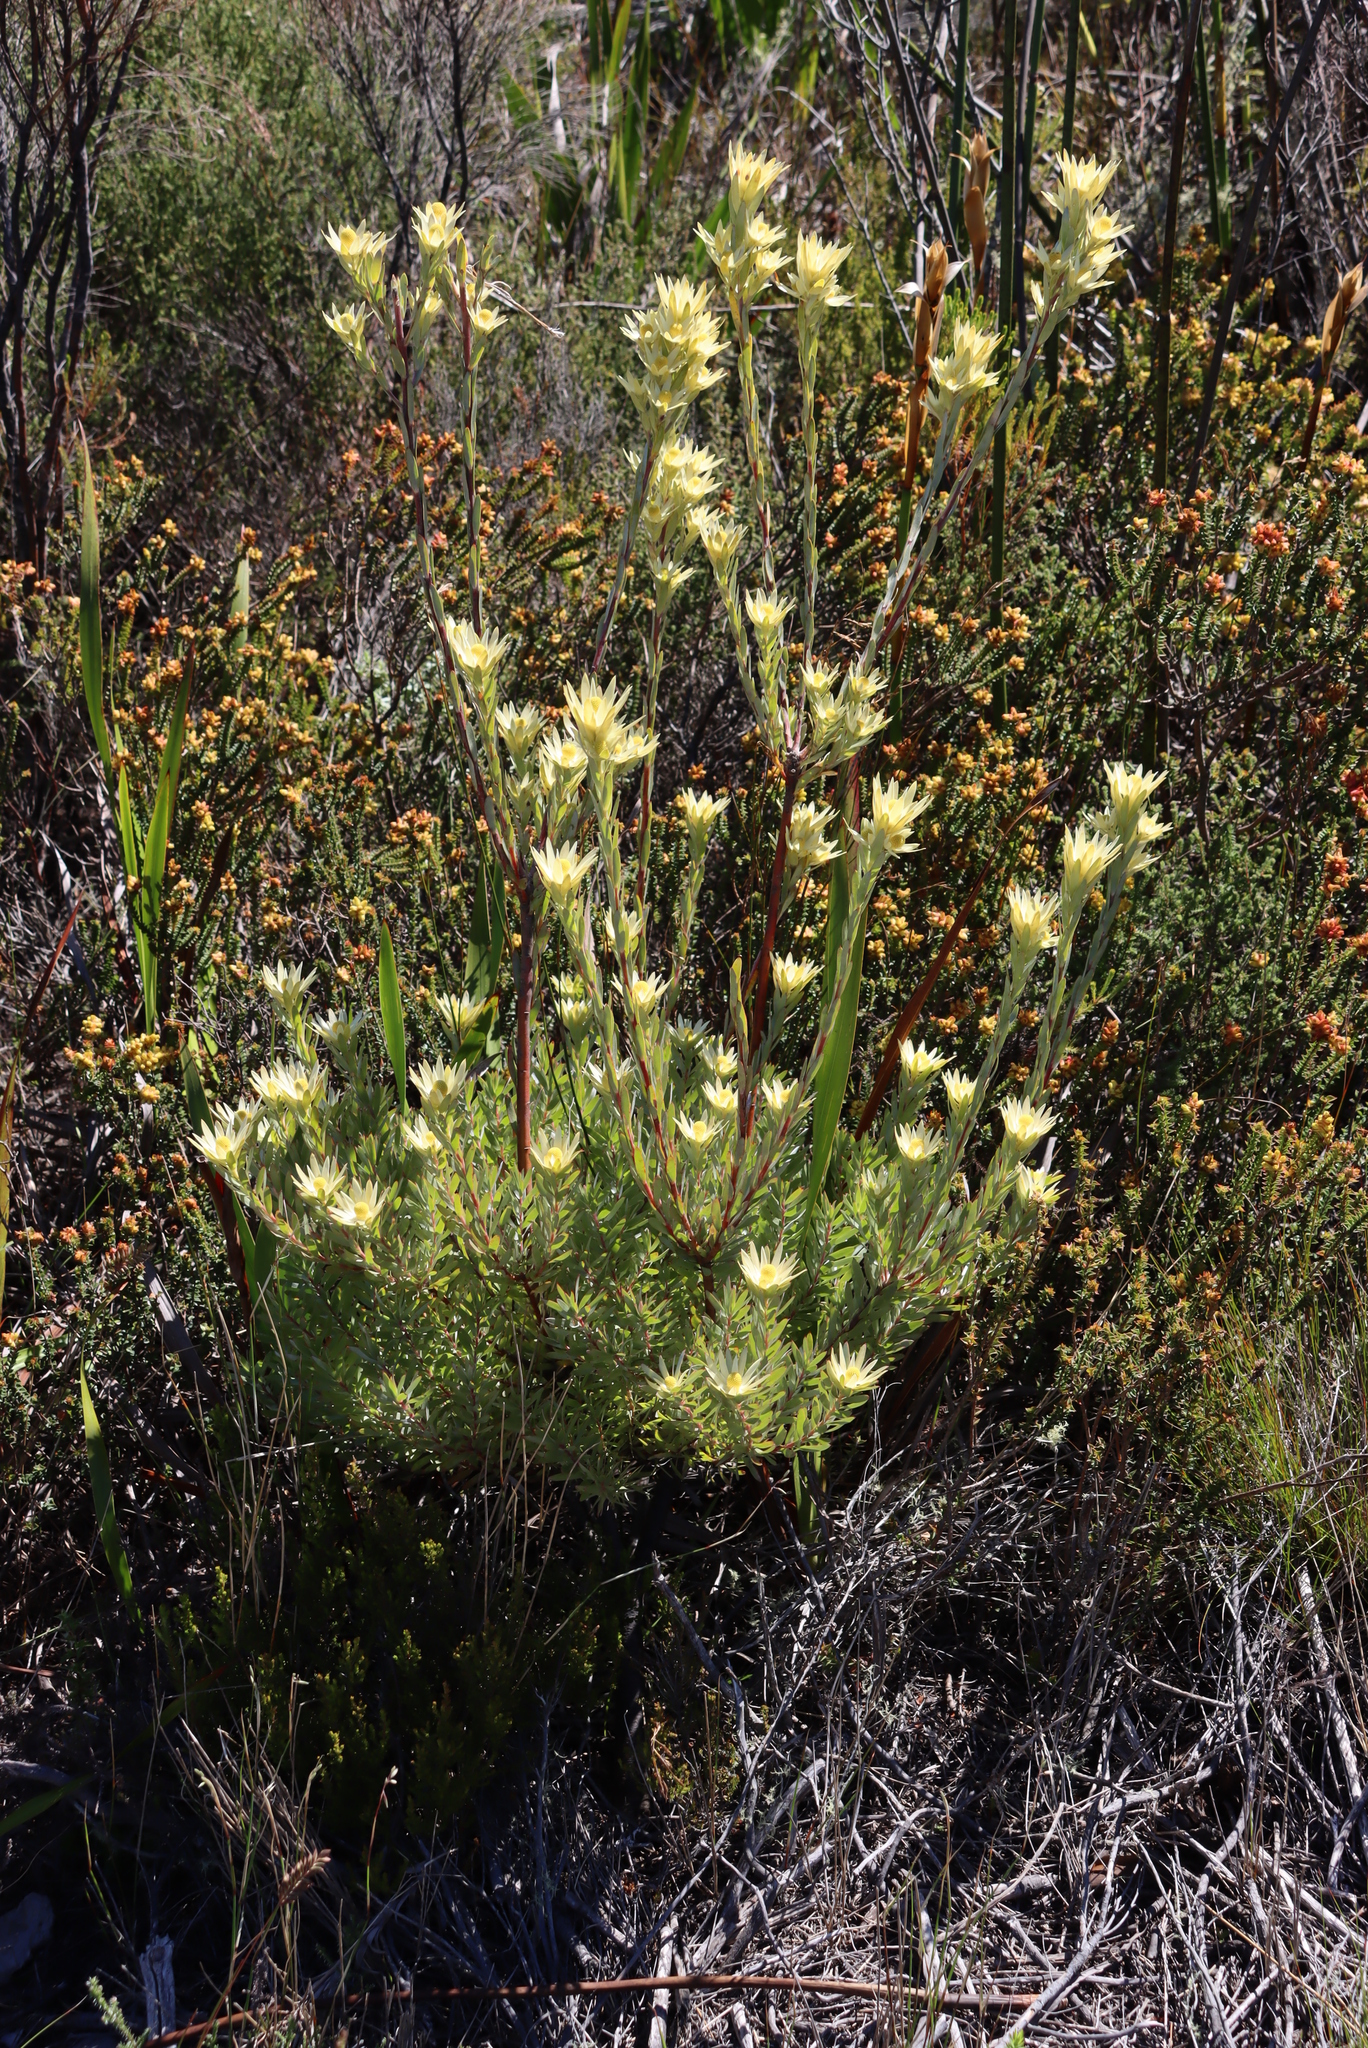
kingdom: Plantae
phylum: Tracheophyta
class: Magnoliopsida
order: Proteales
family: Proteaceae
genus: Leucadendron
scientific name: Leucadendron uliginosum
